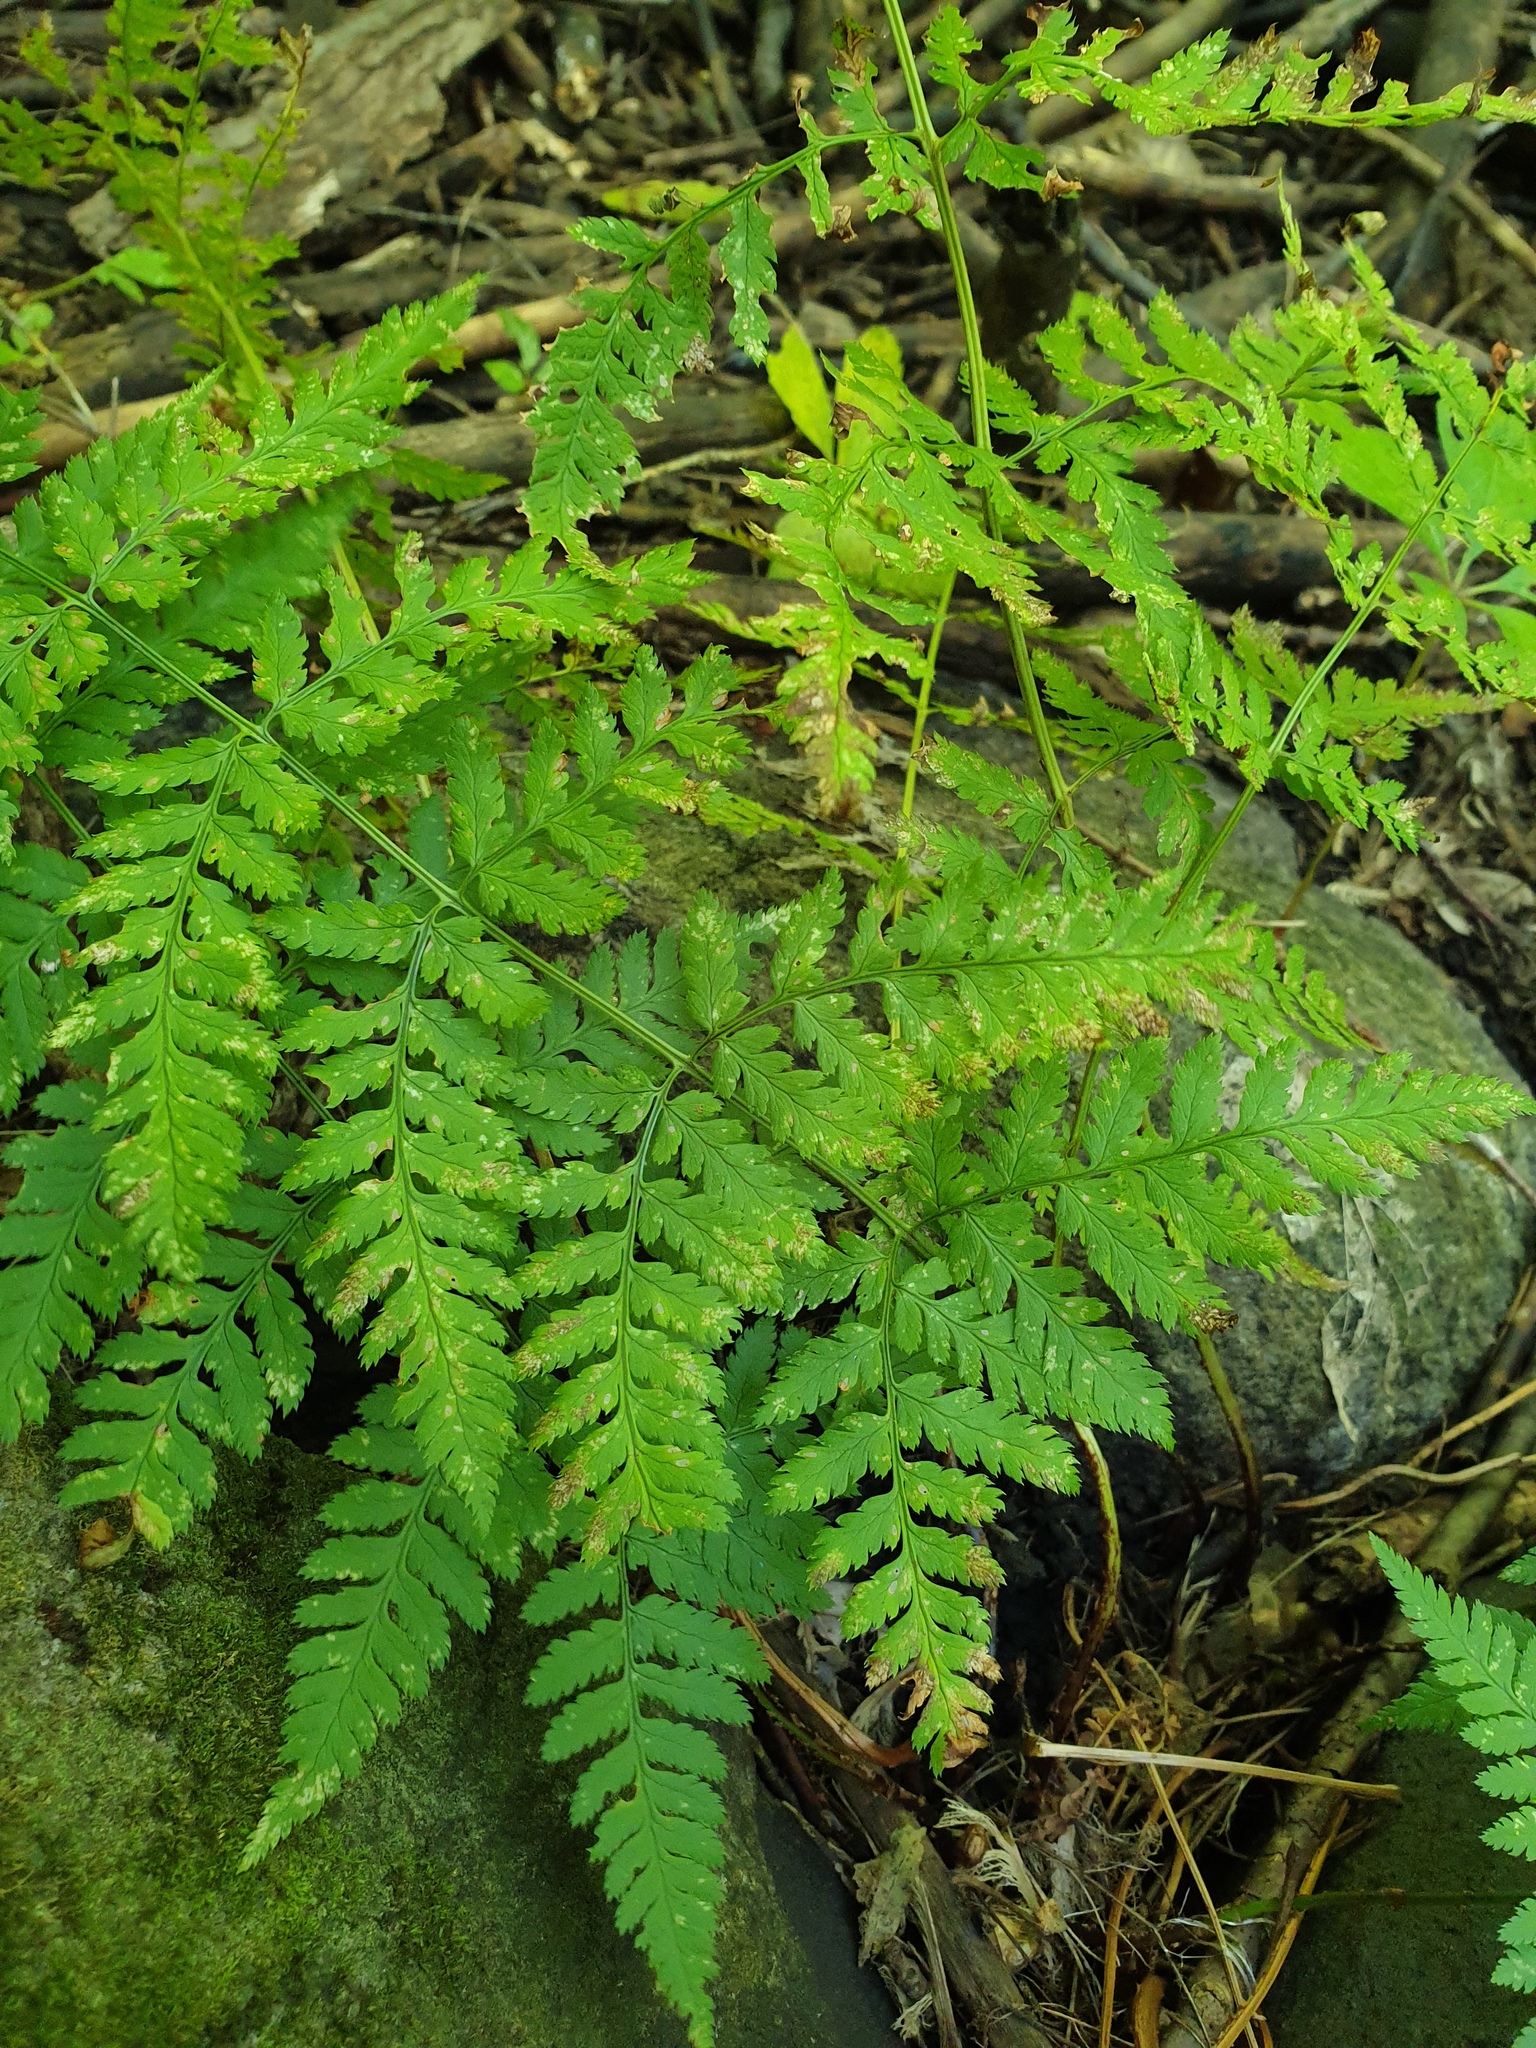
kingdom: Plantae
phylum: Tracheophyta
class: Polypodiopsida
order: Polypodiales
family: Dryopteridaceae
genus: Dryopteris
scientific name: Dryopteris carthusiana
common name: Narrow buckler-fern
